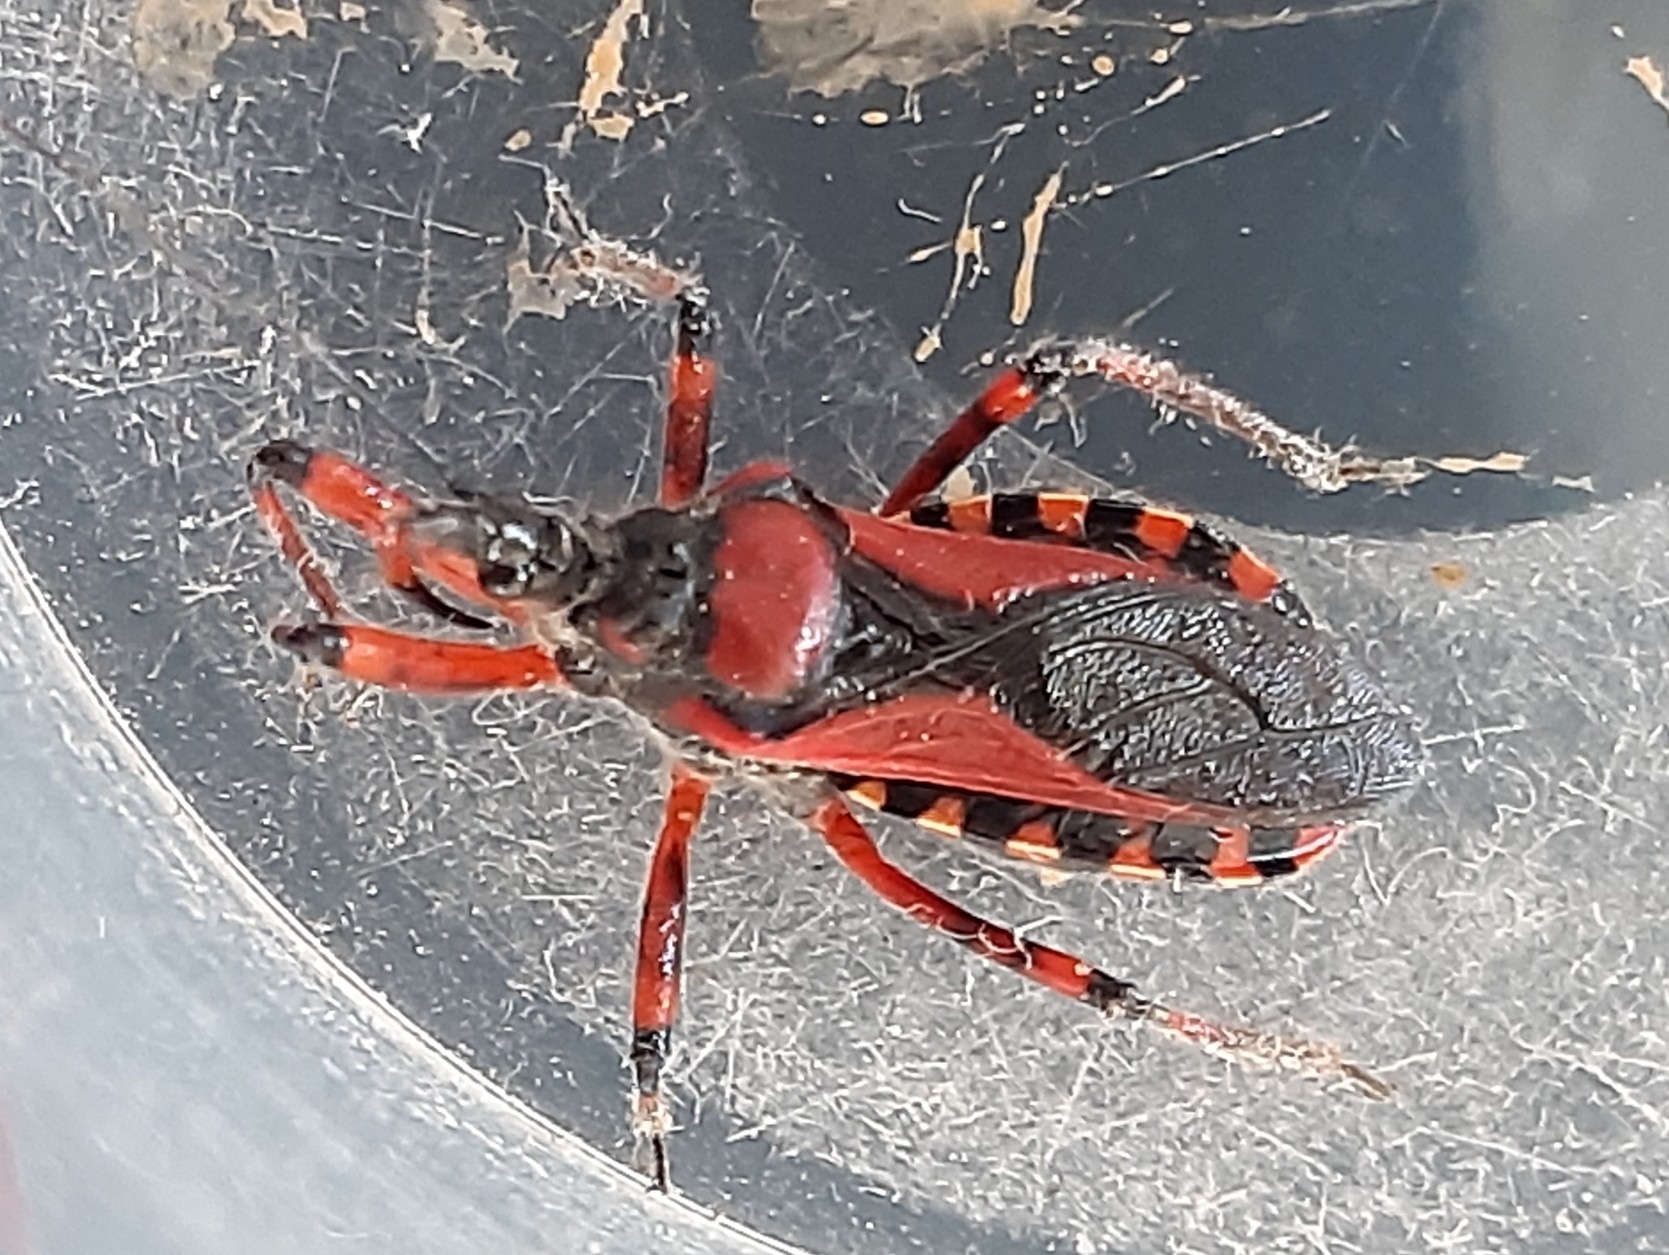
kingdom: Animalia
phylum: Arthropoda
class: Insecta
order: Hemiptera
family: Reduviidae
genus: Rhynocoris
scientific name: Rhynocoris iracundus
